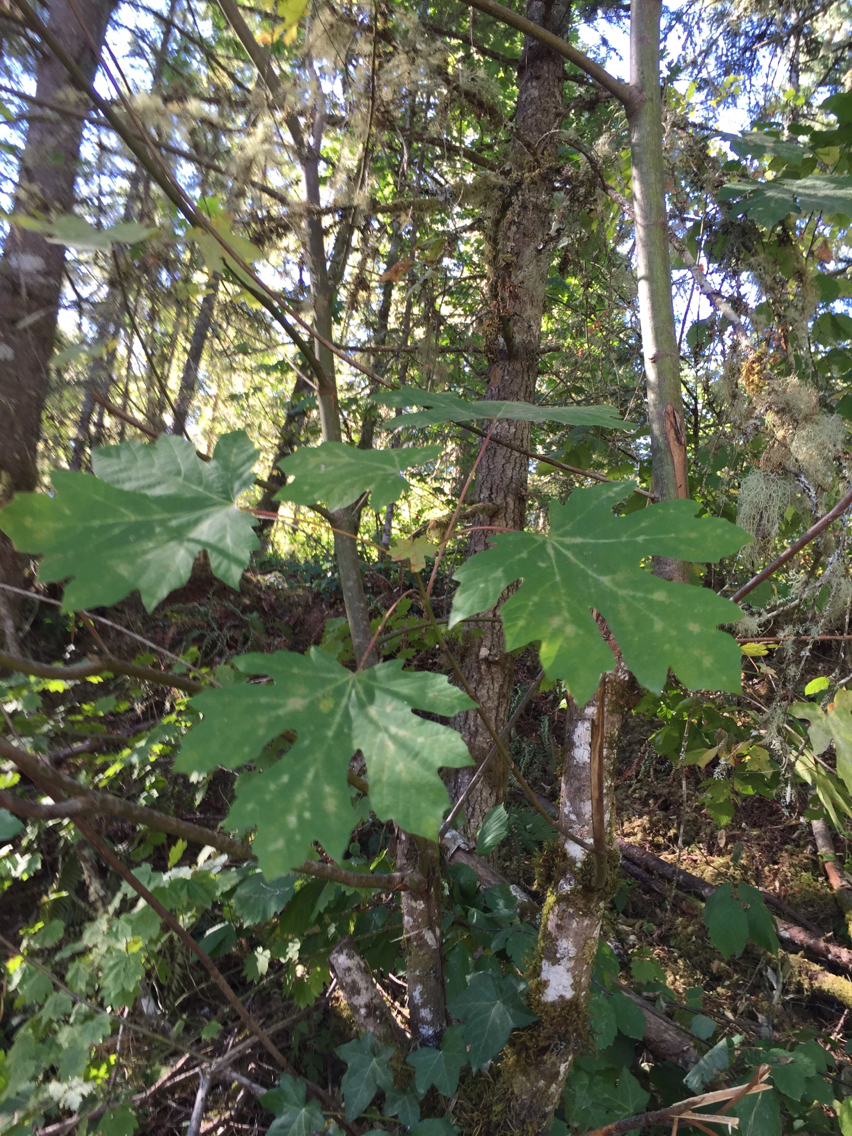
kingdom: Plantae
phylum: Tracheophyta
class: Magnoliopsida
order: Sapindales
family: Sapindaceae
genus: Acer
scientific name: Acer macrophyllum
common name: Oregon maple
